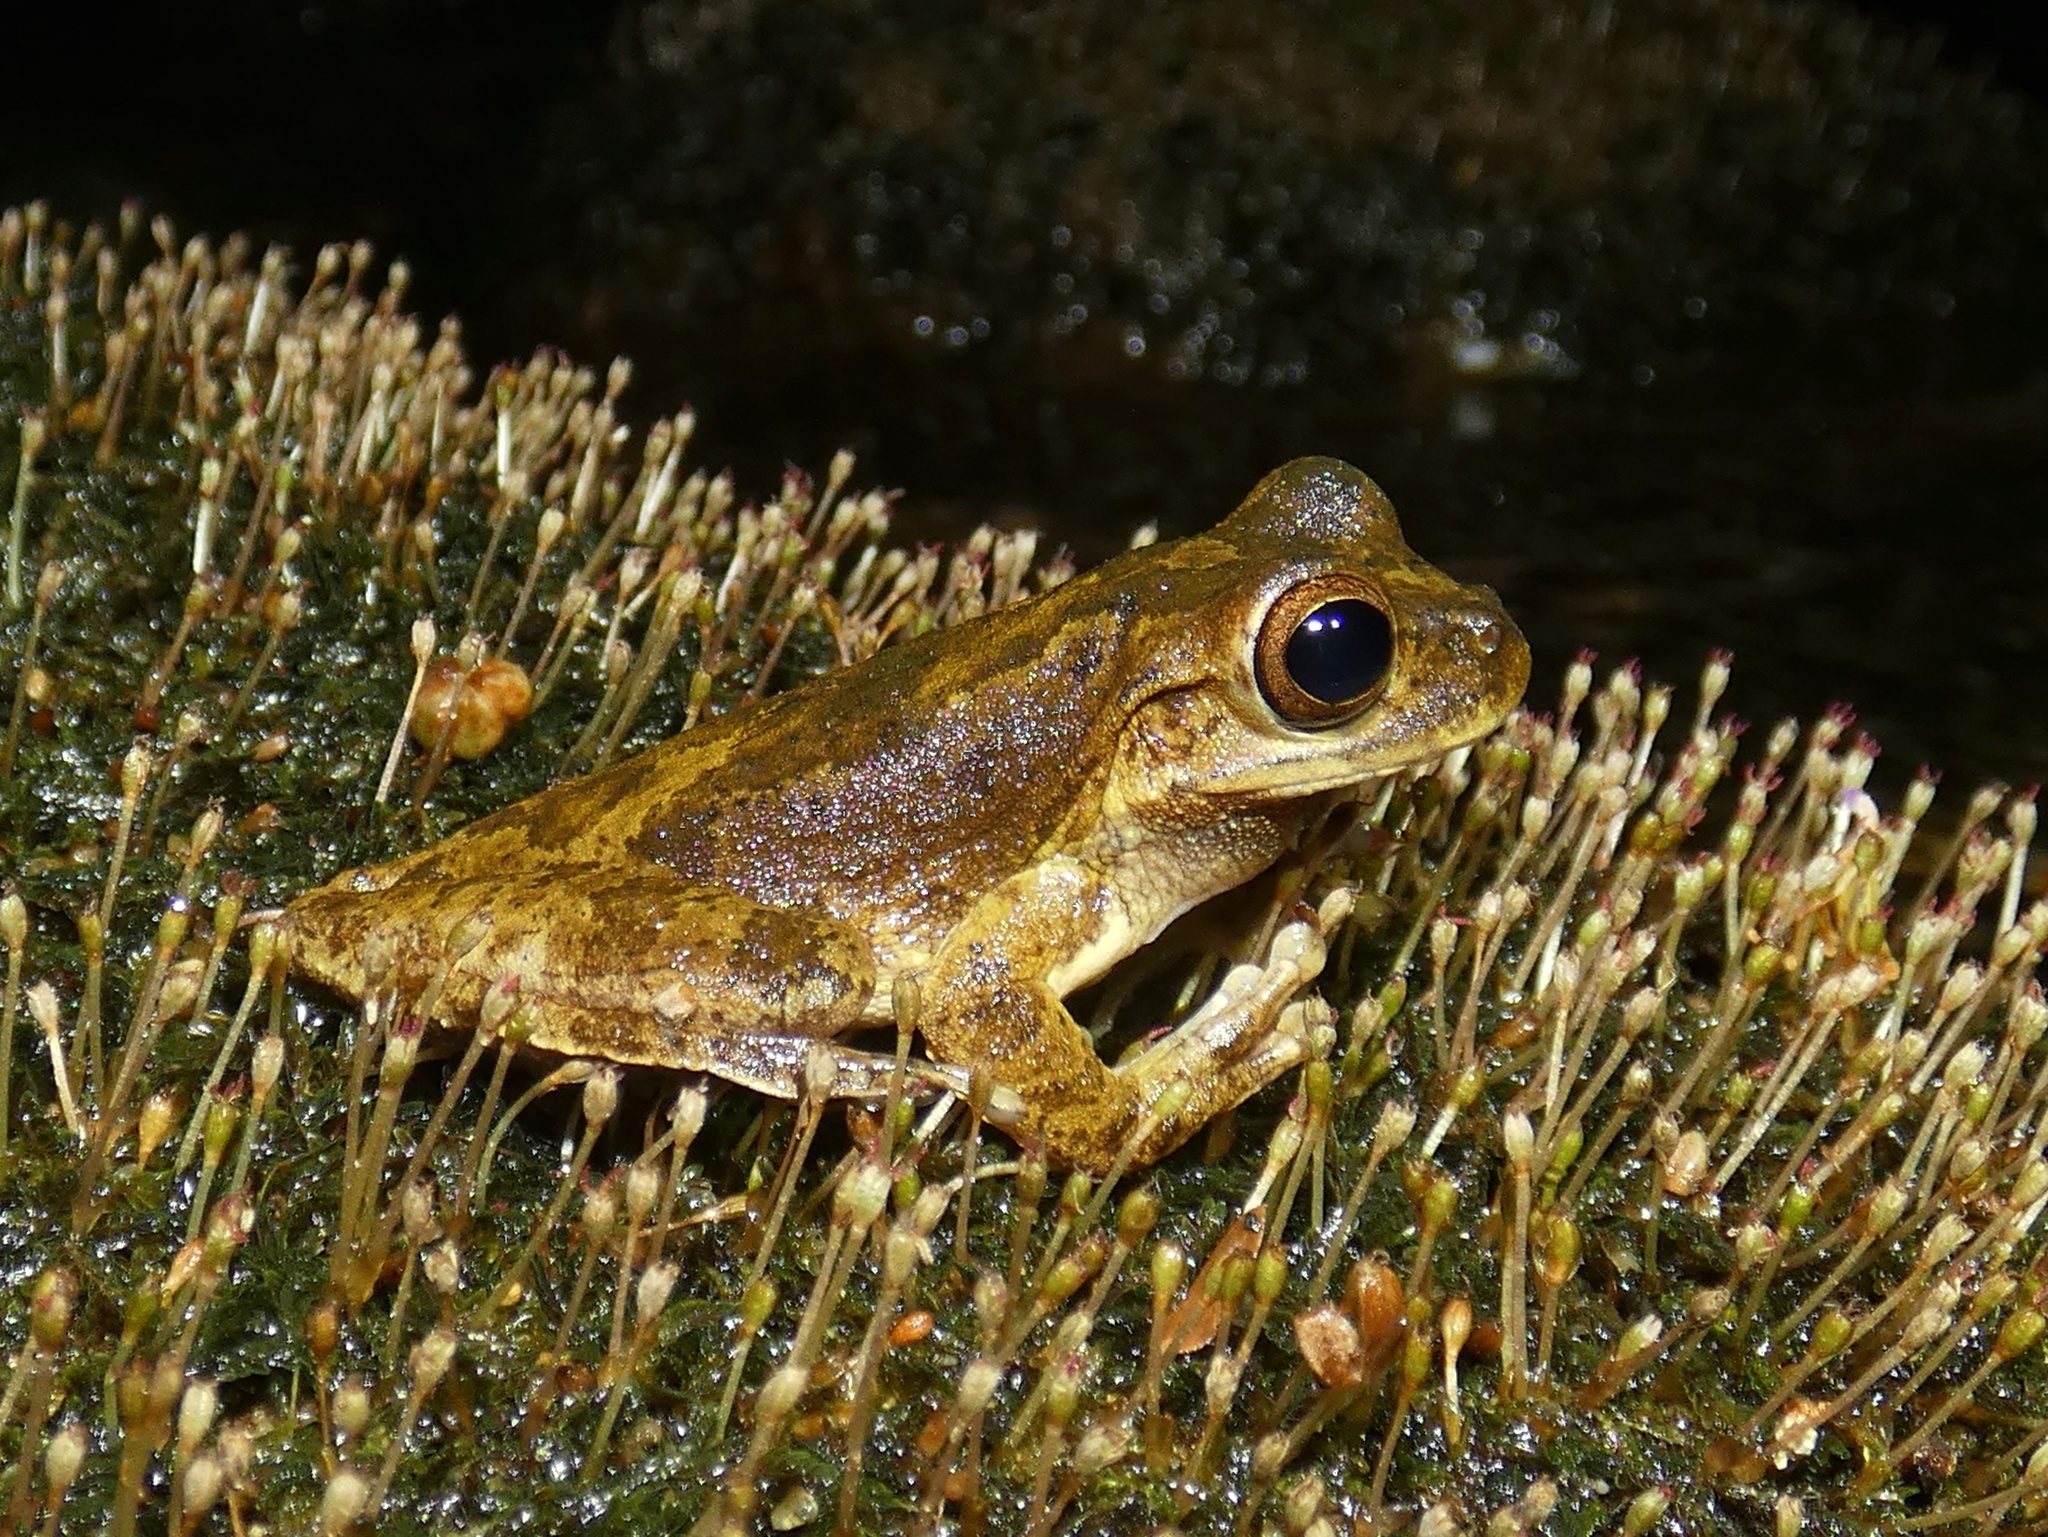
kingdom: Animalia
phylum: Chordata
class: Amphibia
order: Anura
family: Hylidae
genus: Smilisca
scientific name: Smilisca sila
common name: Panama cross-banded treefrog
